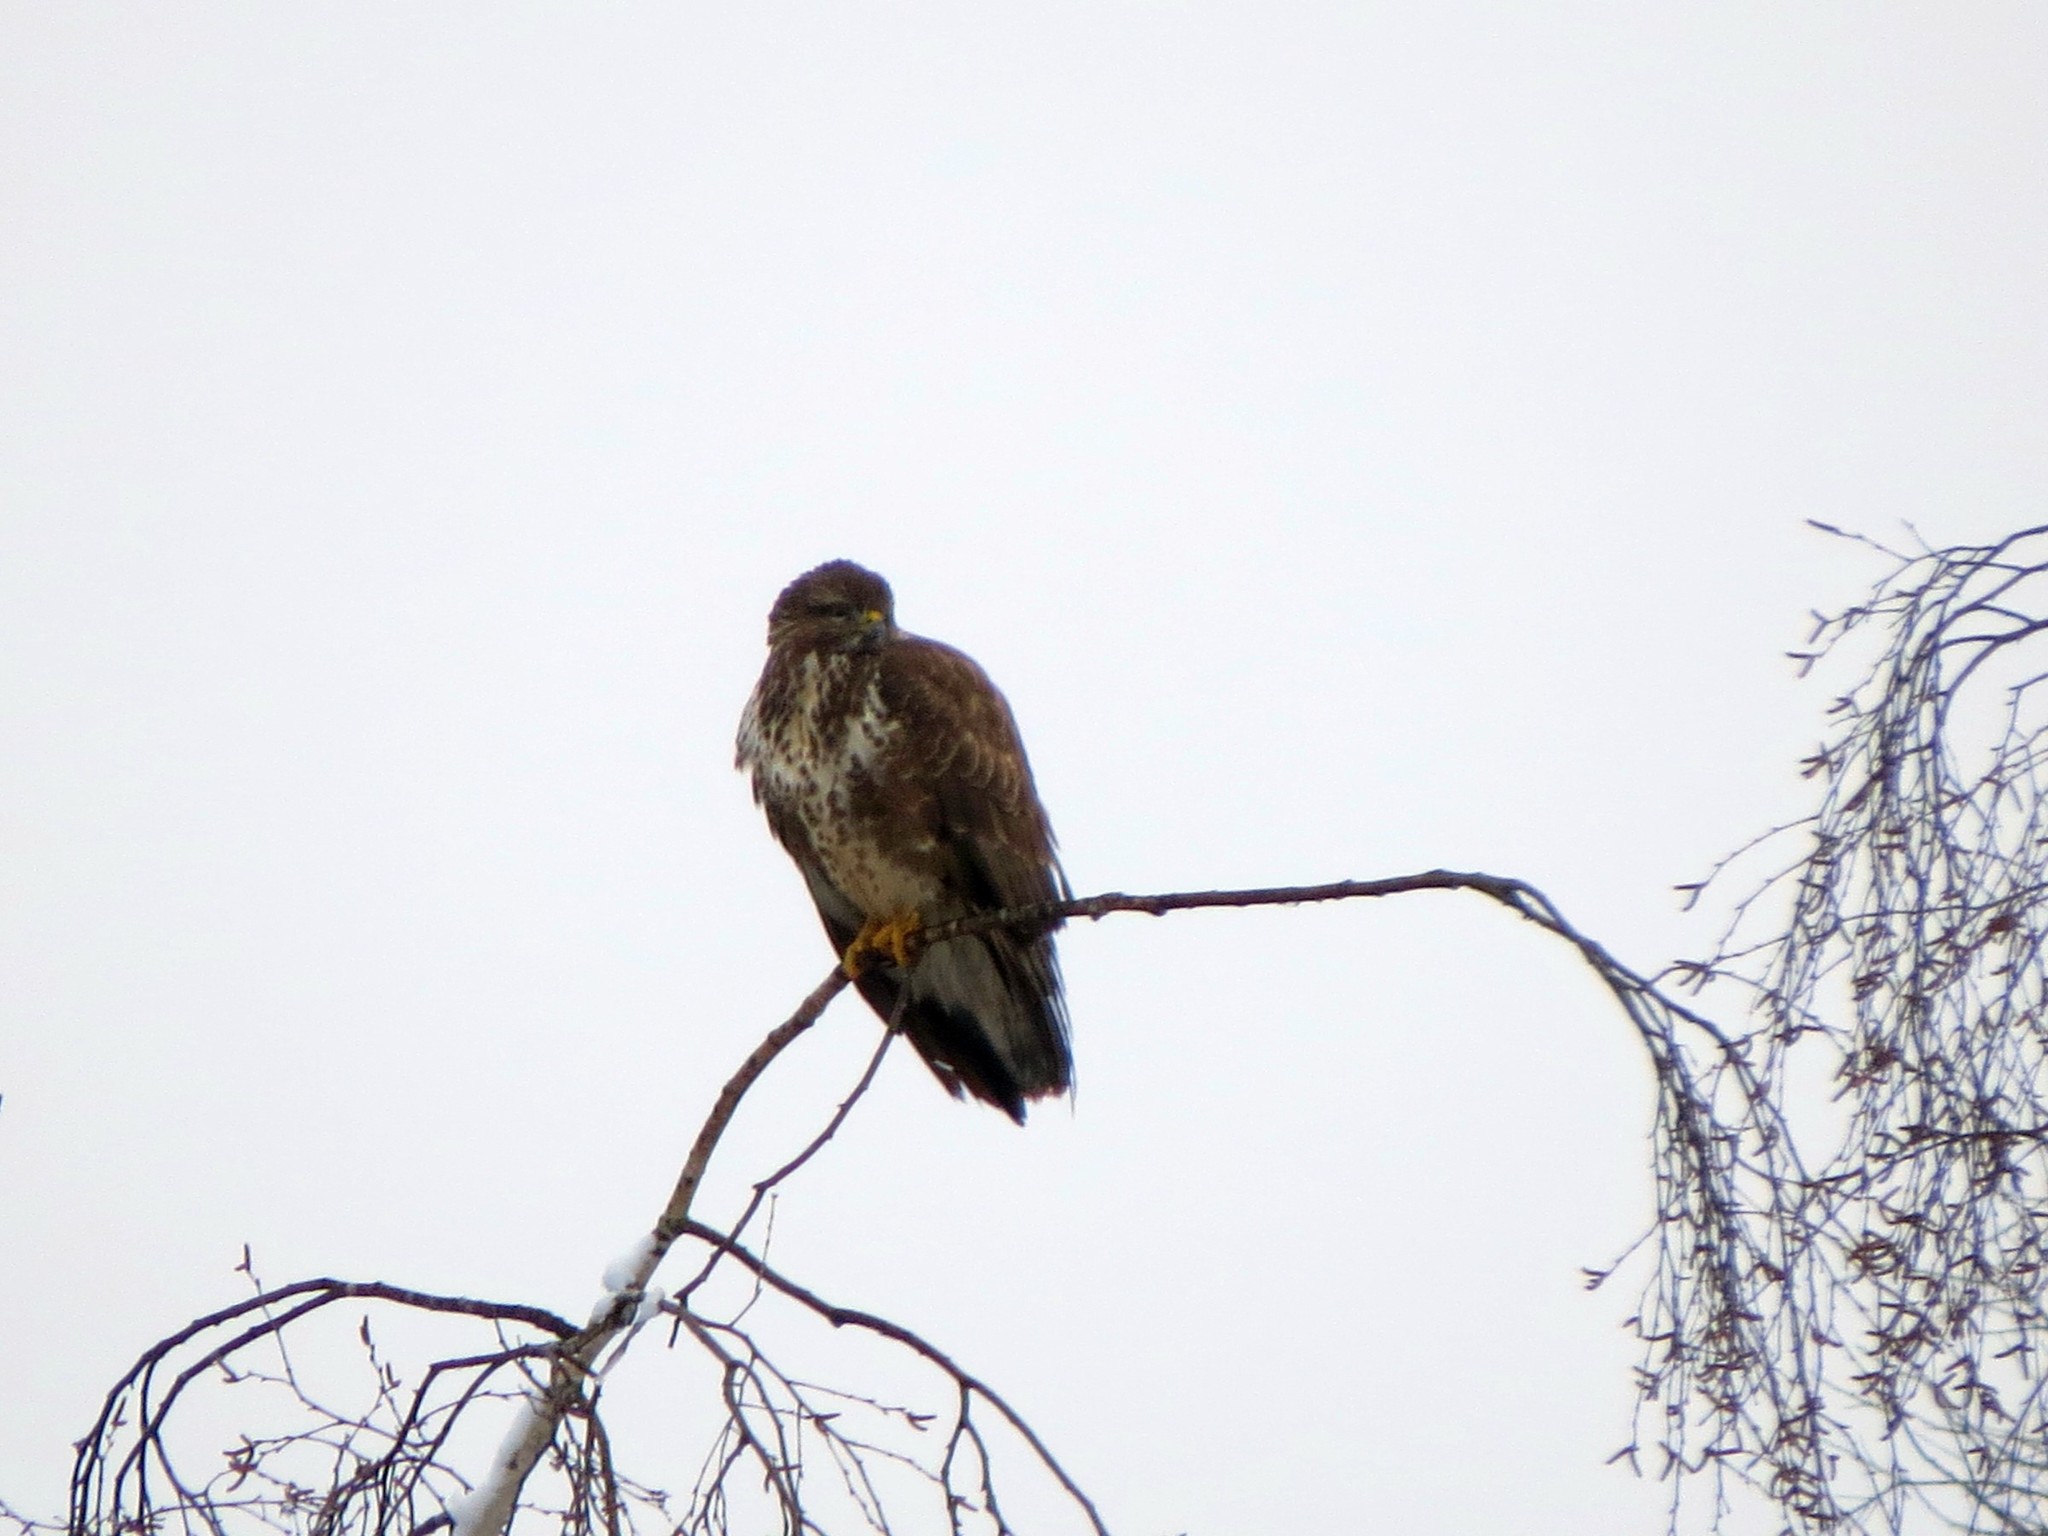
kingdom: Animalia
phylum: Chordata
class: Aves
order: Accipitriformes
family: Accipitridae
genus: Buteo
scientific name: Buteo buteo
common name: Common buzzard
